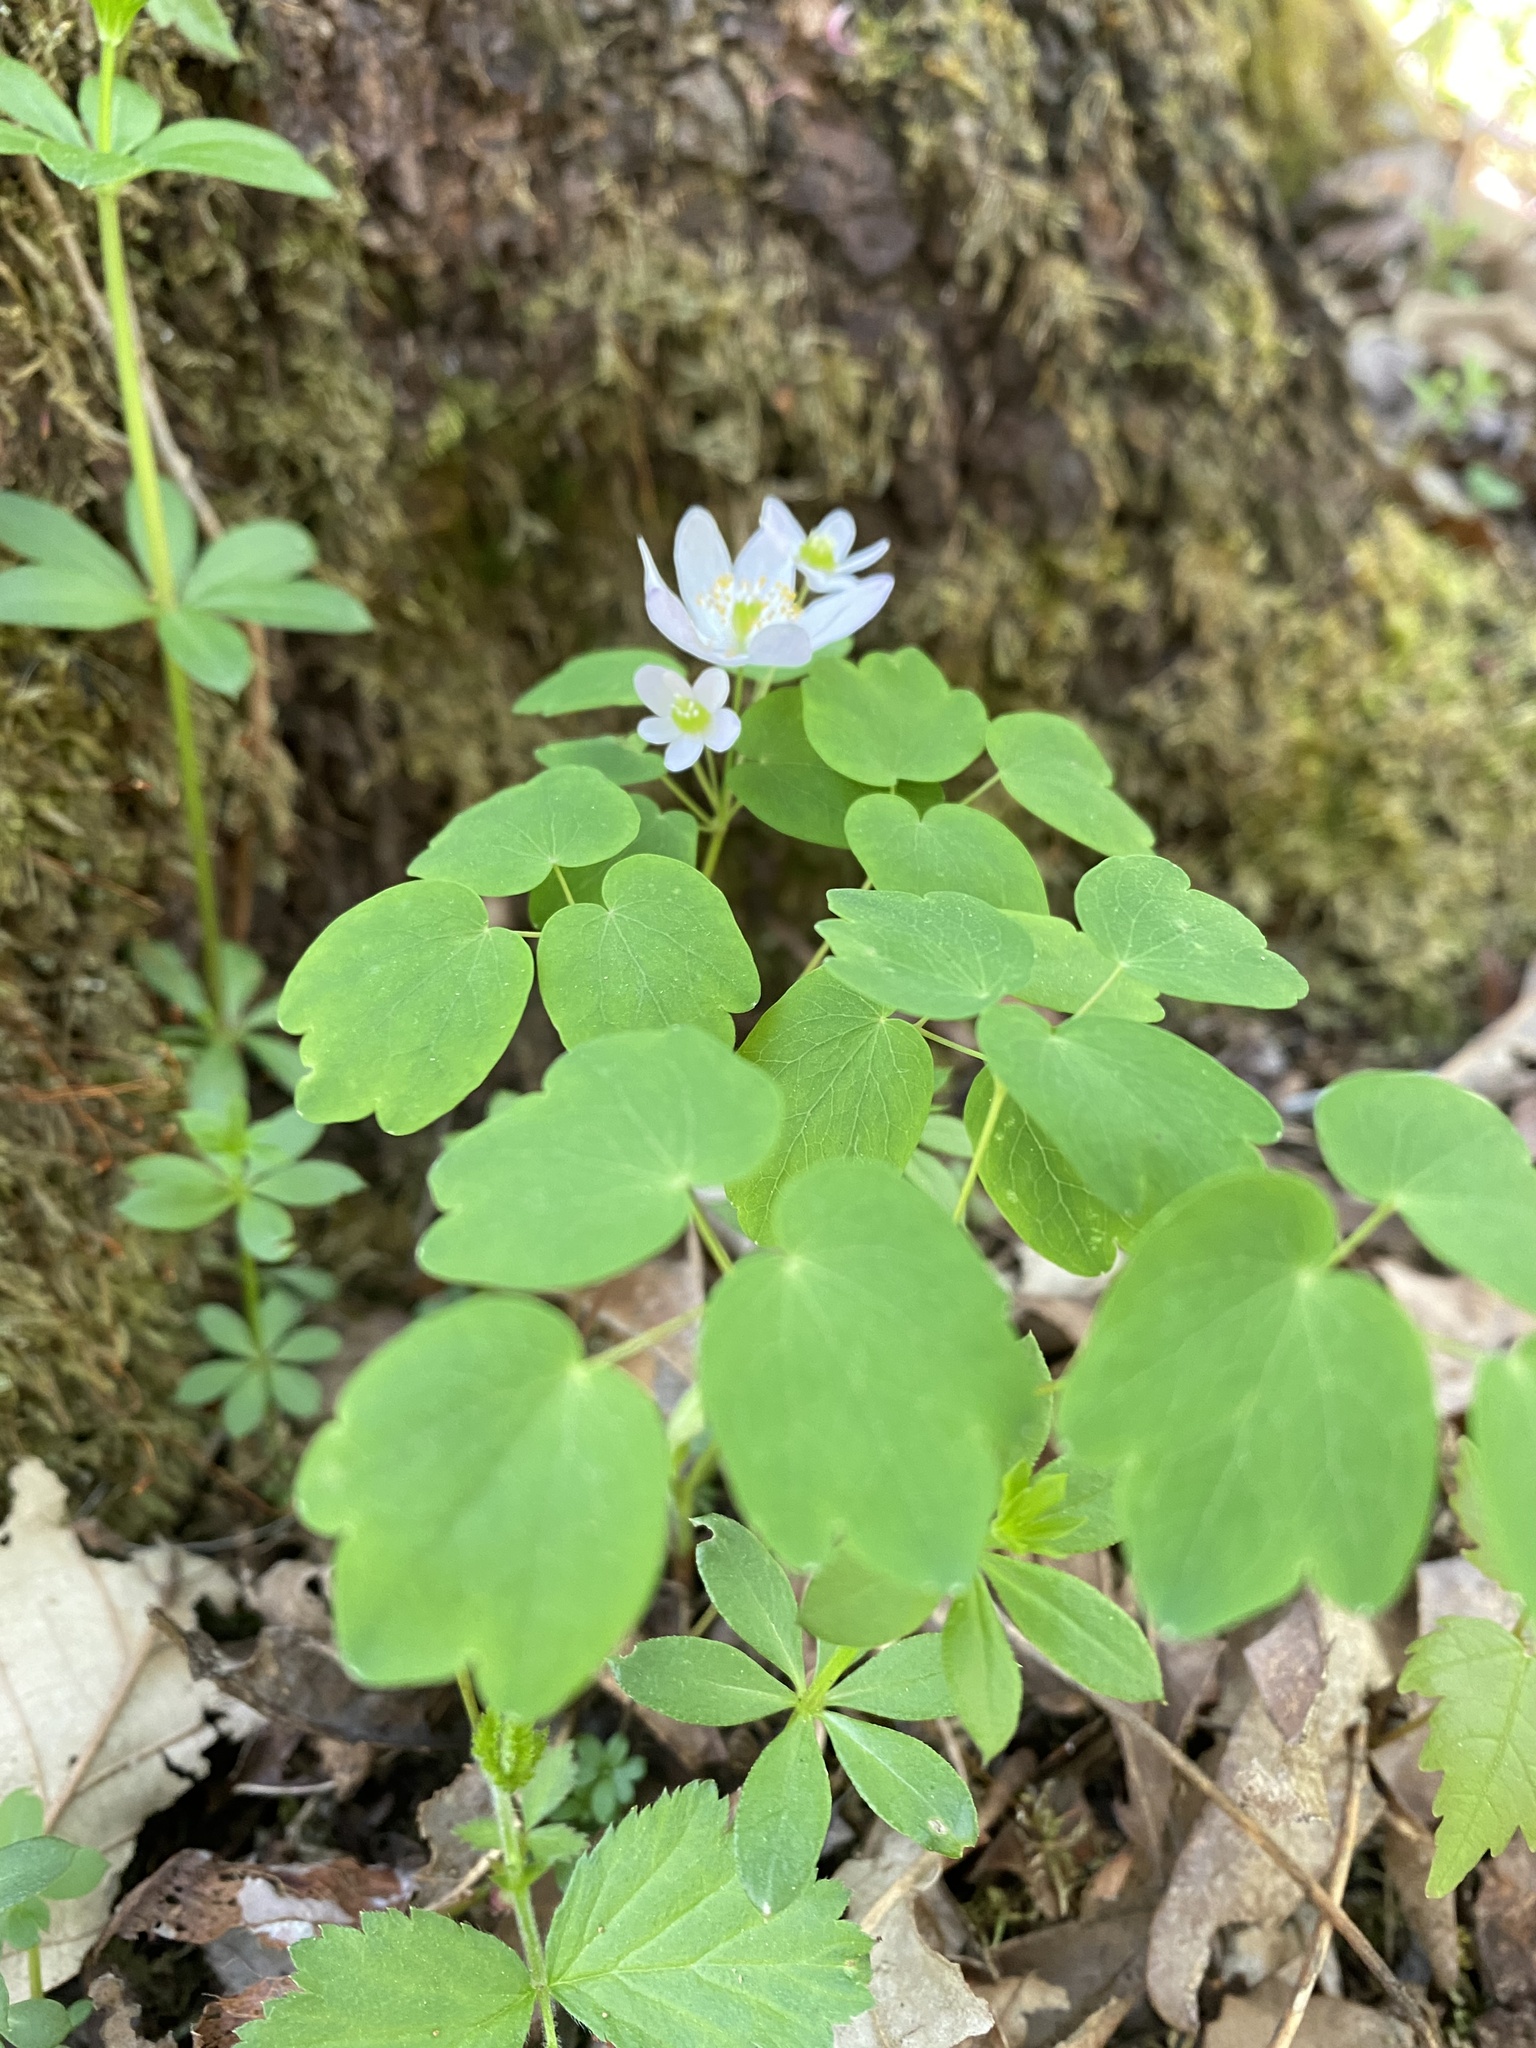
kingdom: Plantae
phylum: Tracheophyta
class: Magnoliopsida
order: Ranunculales
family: Ranunculaceae
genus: Thalictrum
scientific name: Thalictrum thalictroides
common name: Rue-anemone
